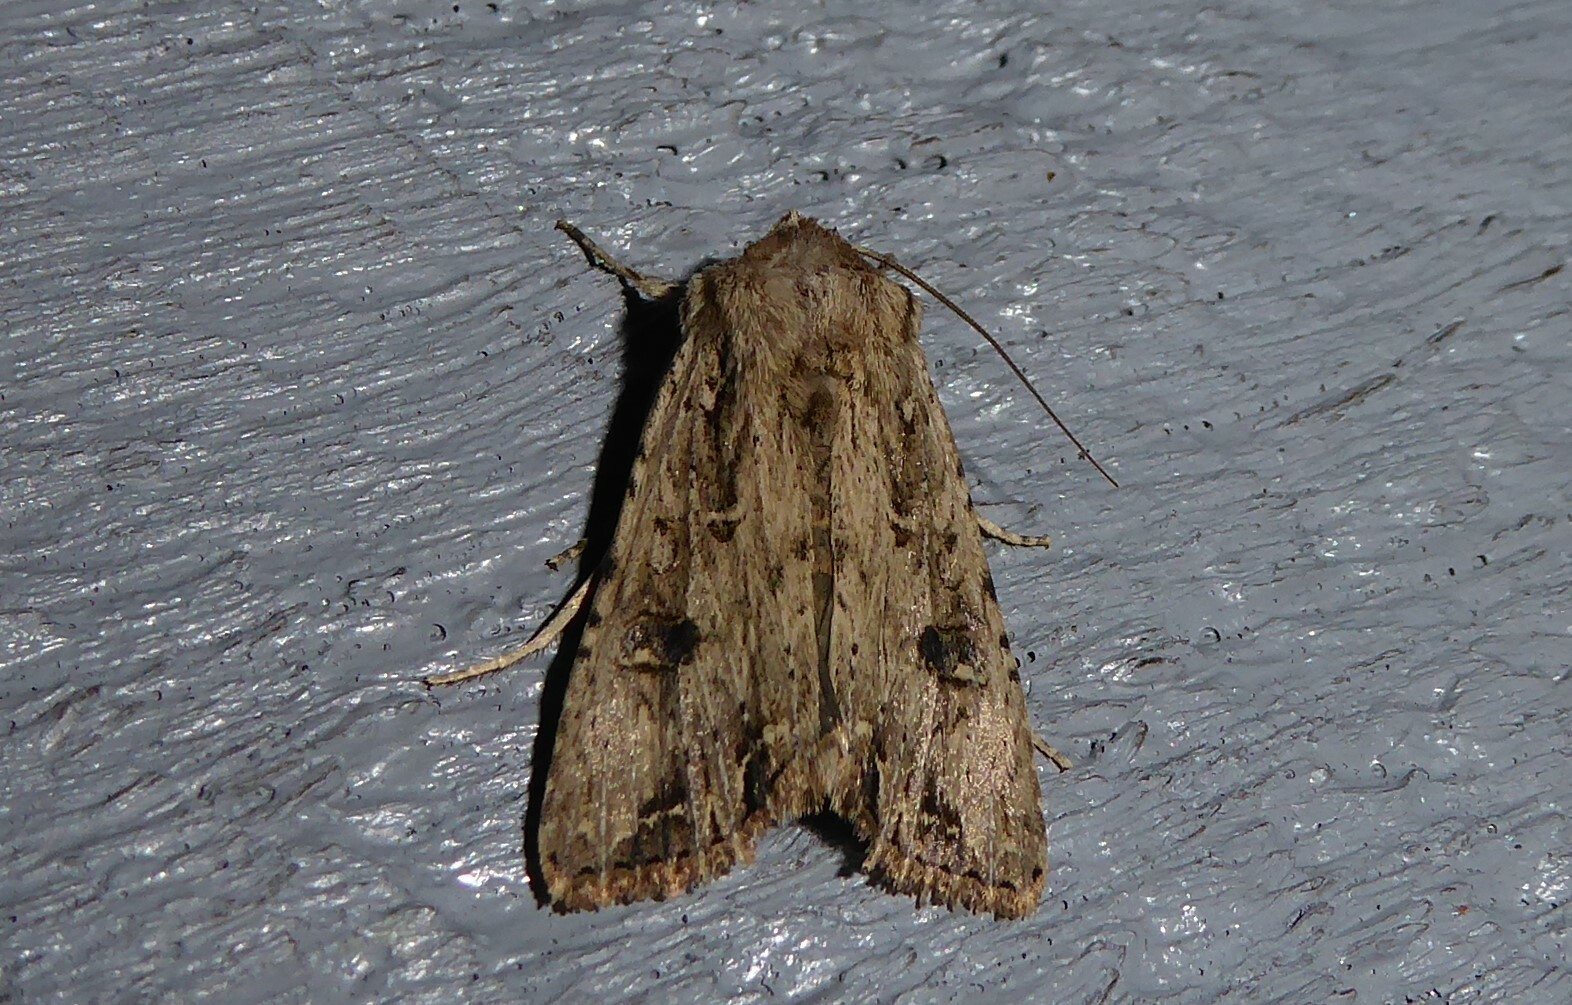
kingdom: Animalia
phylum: Arthropoda
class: Insecta
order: Lepidoptera
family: Noctuidae
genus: Ichneutica
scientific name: Ichneutica lignana
